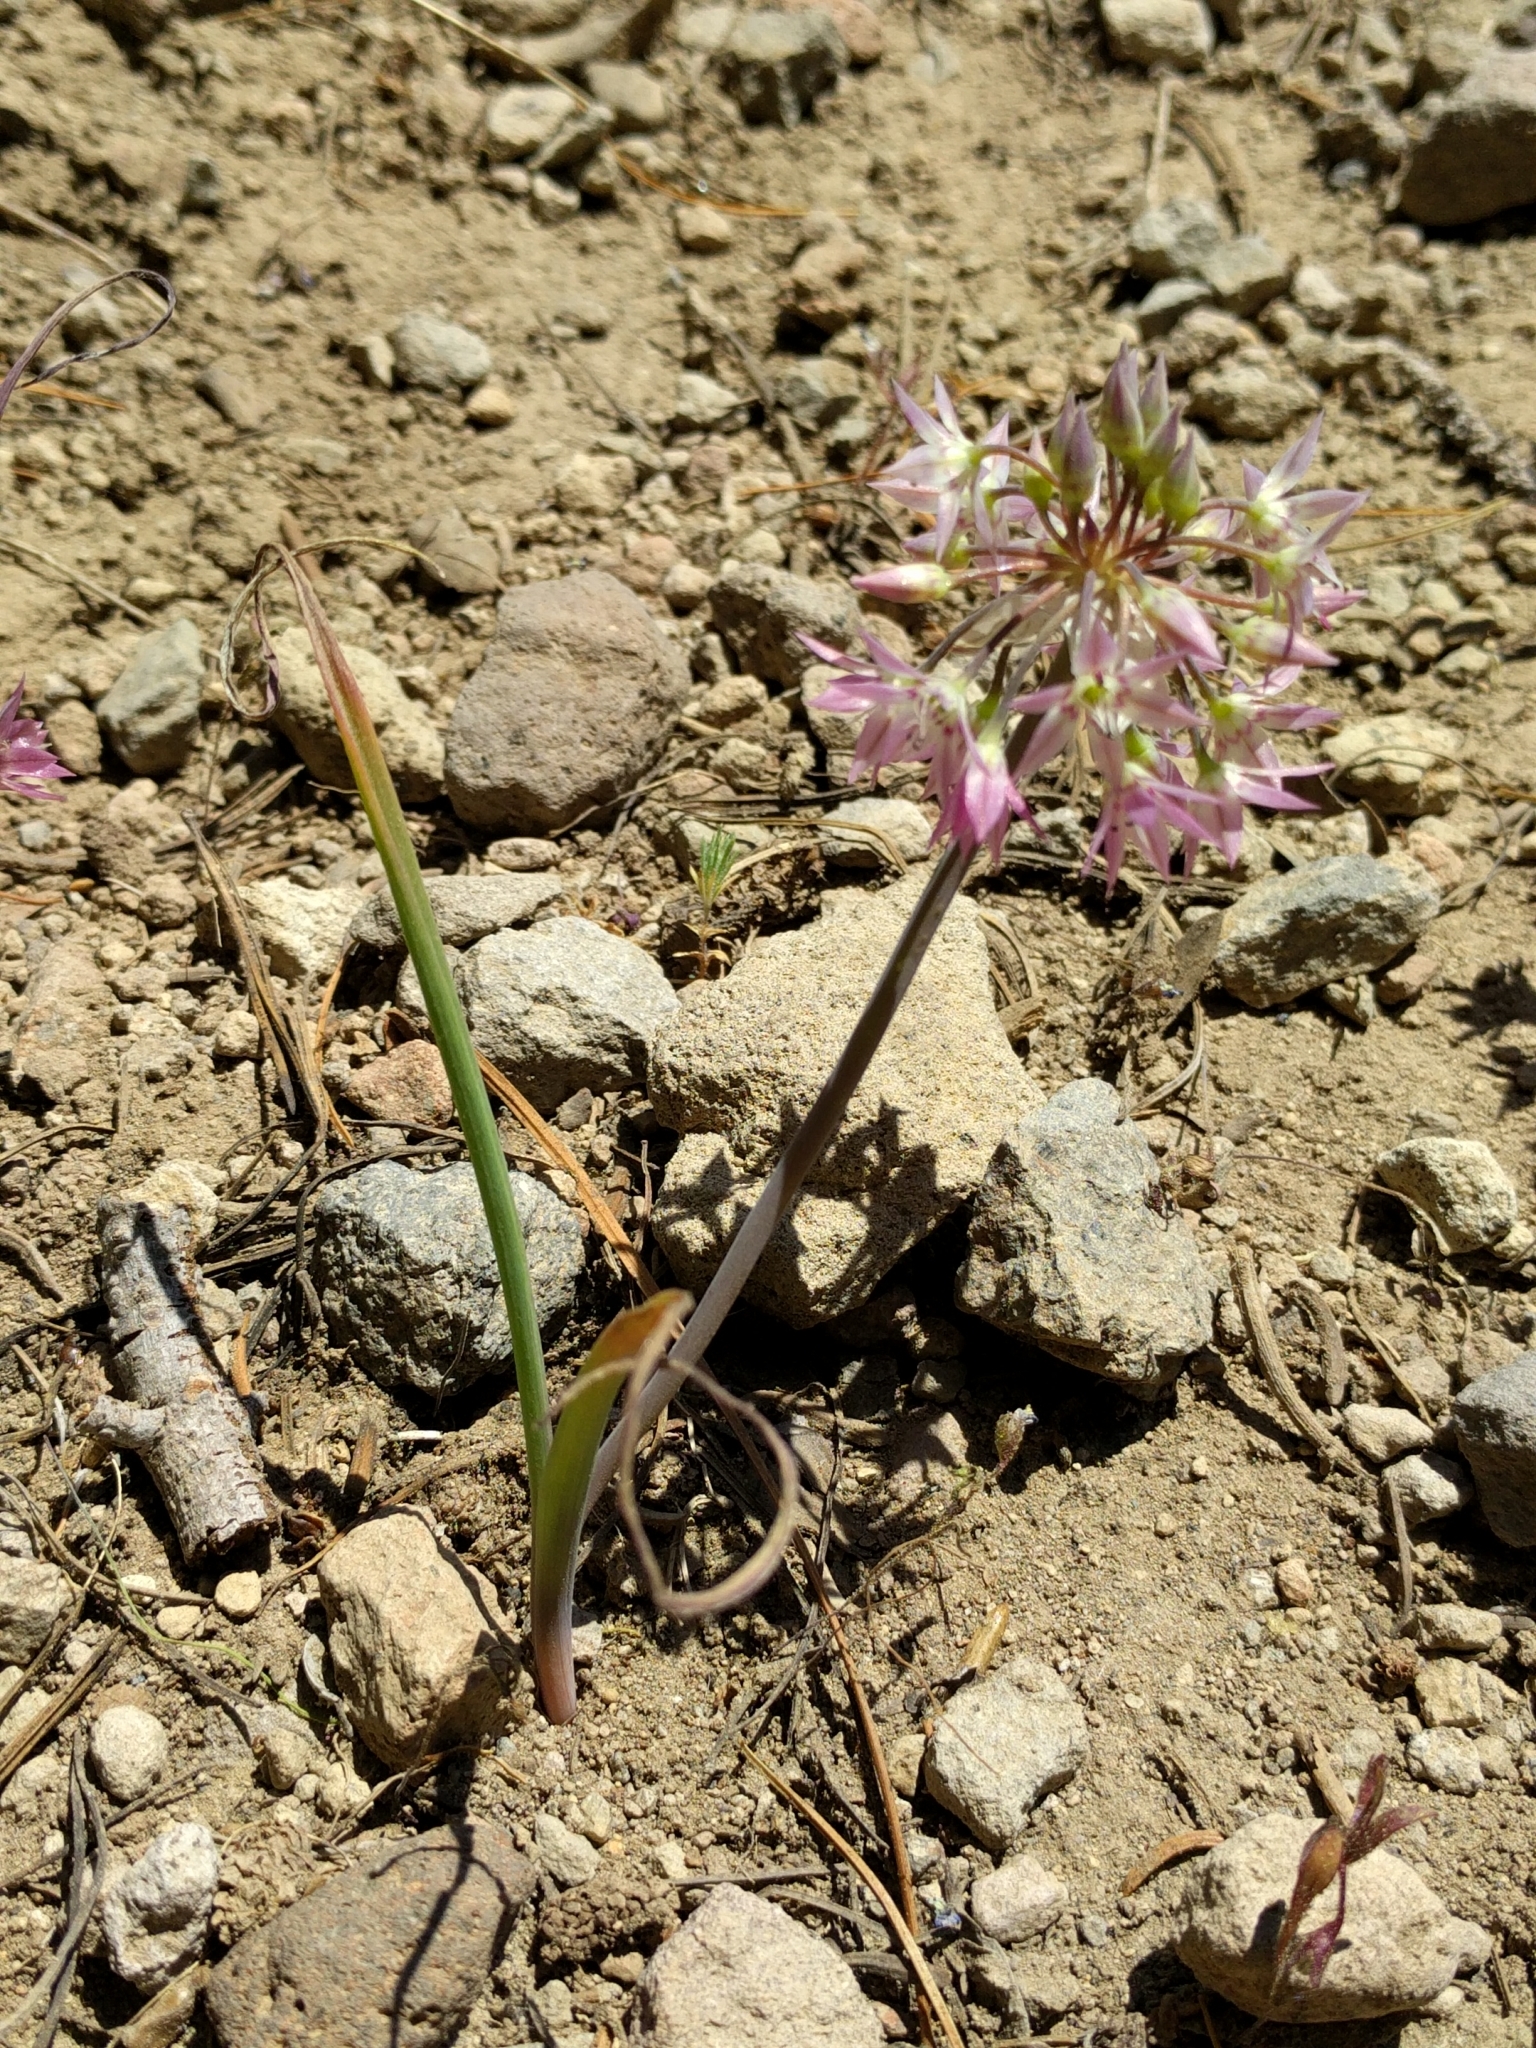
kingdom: Plantae
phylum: Tracheophyta
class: Liliopsida
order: Asparagales
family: Amaryllidaceae
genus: Allium
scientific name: Allium campanulatum
